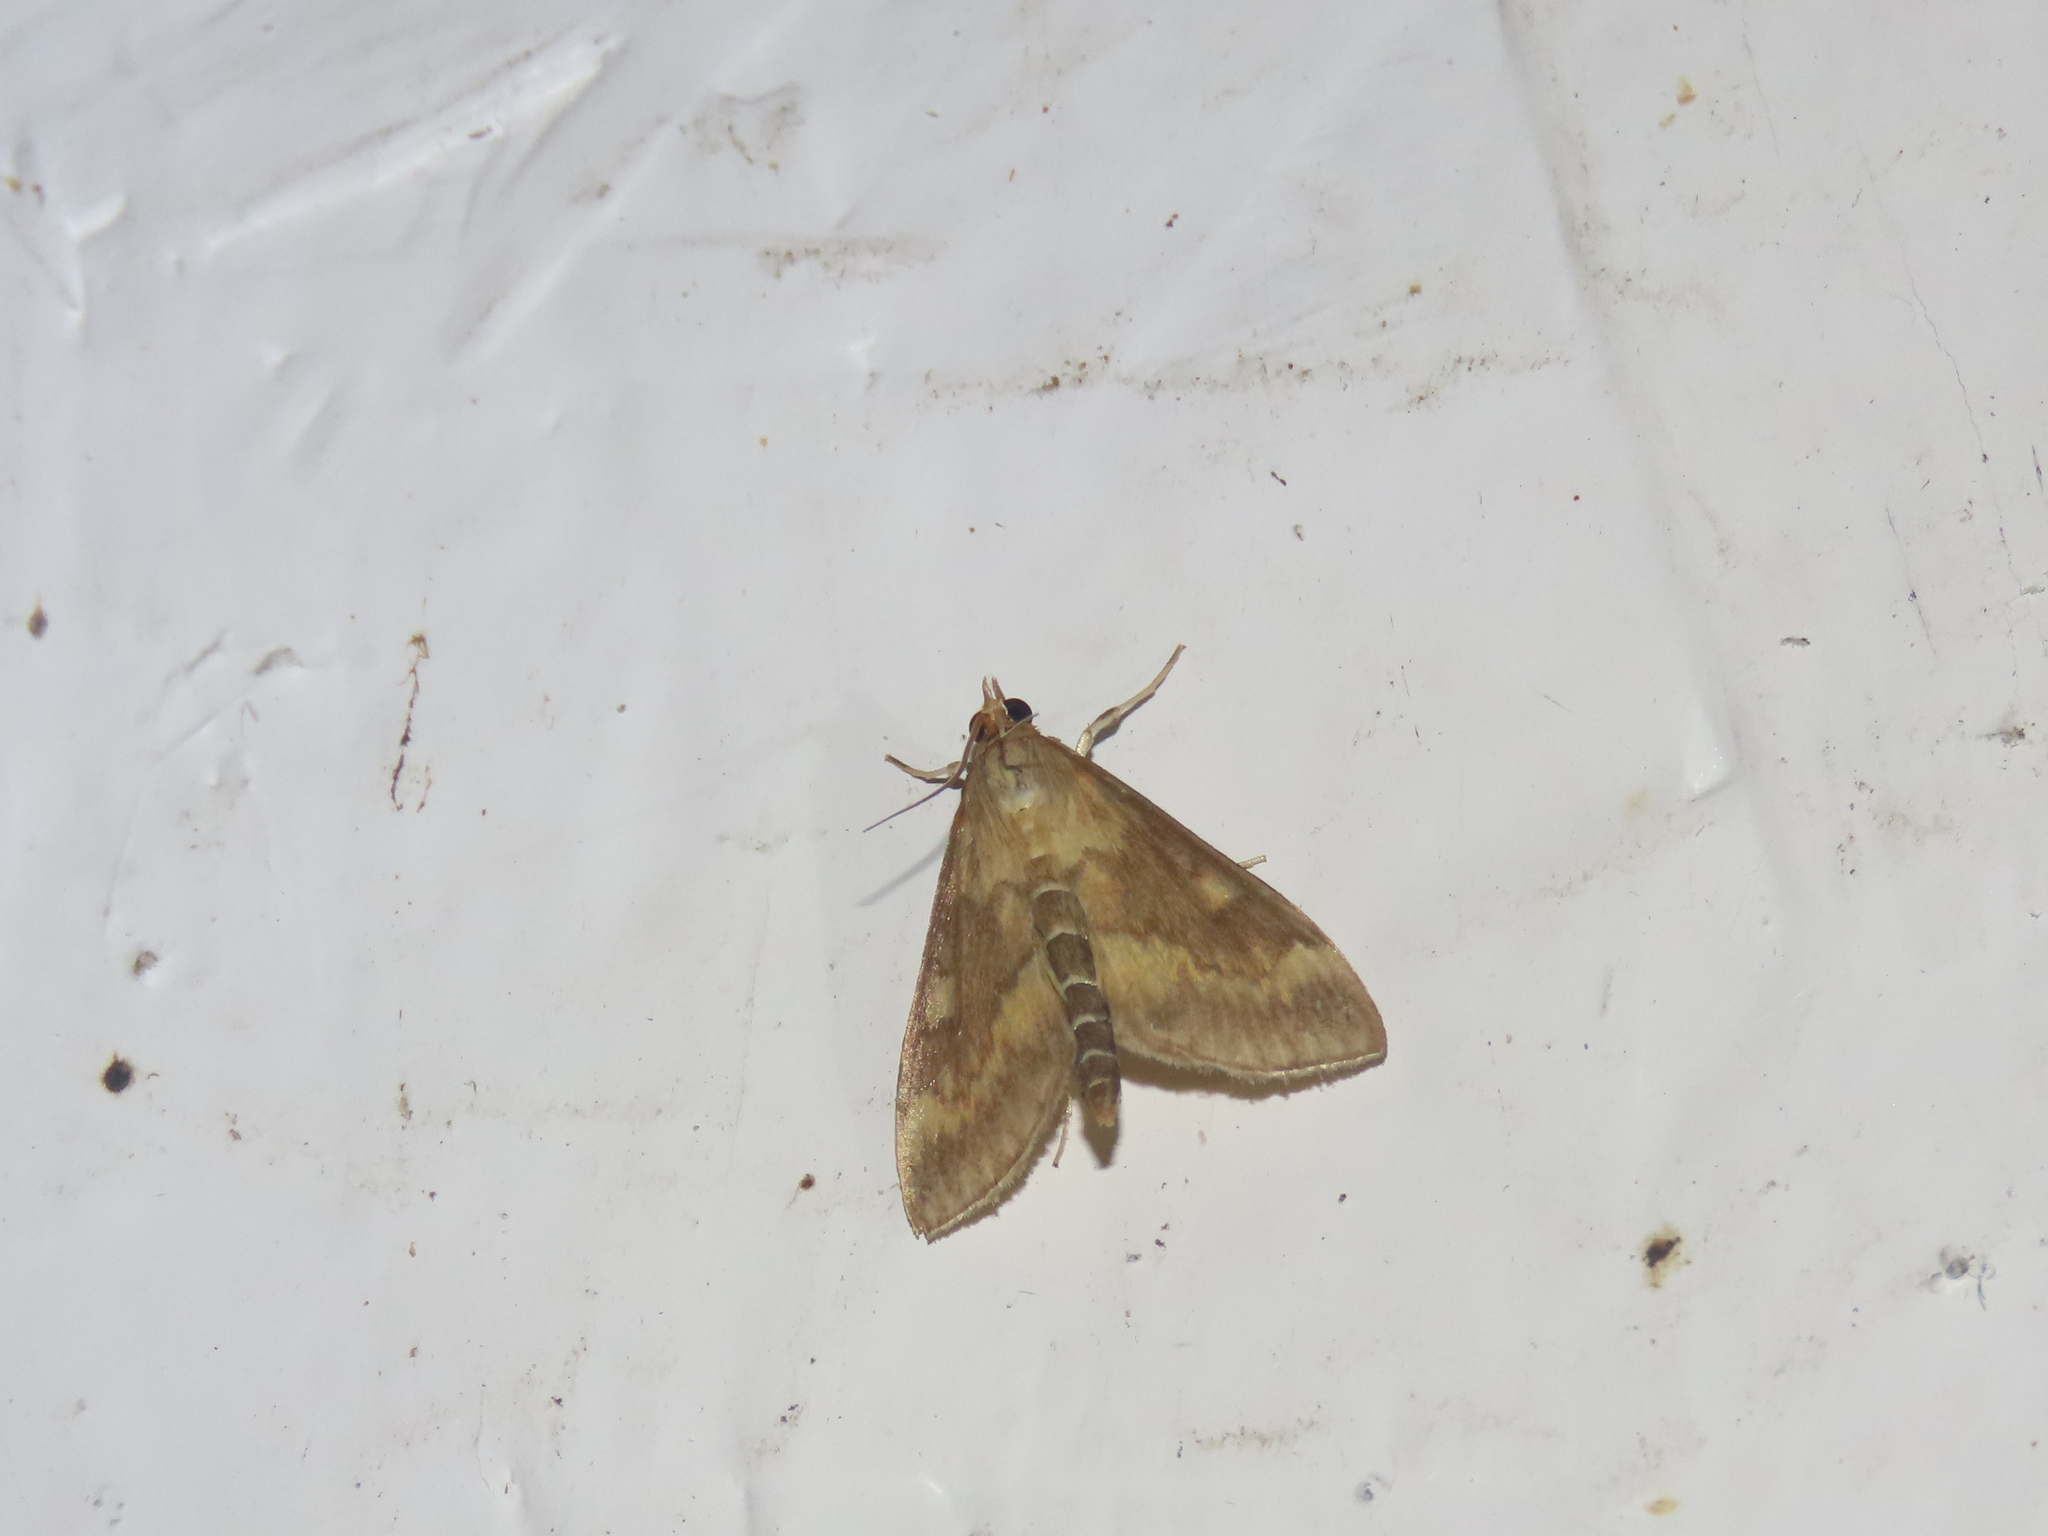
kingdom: Animalia
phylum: Arthropoda
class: Insecta
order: Lepidoptera
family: Crambidae
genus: Ostrinia
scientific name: Ostrinia nubilalis
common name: European corn borer
